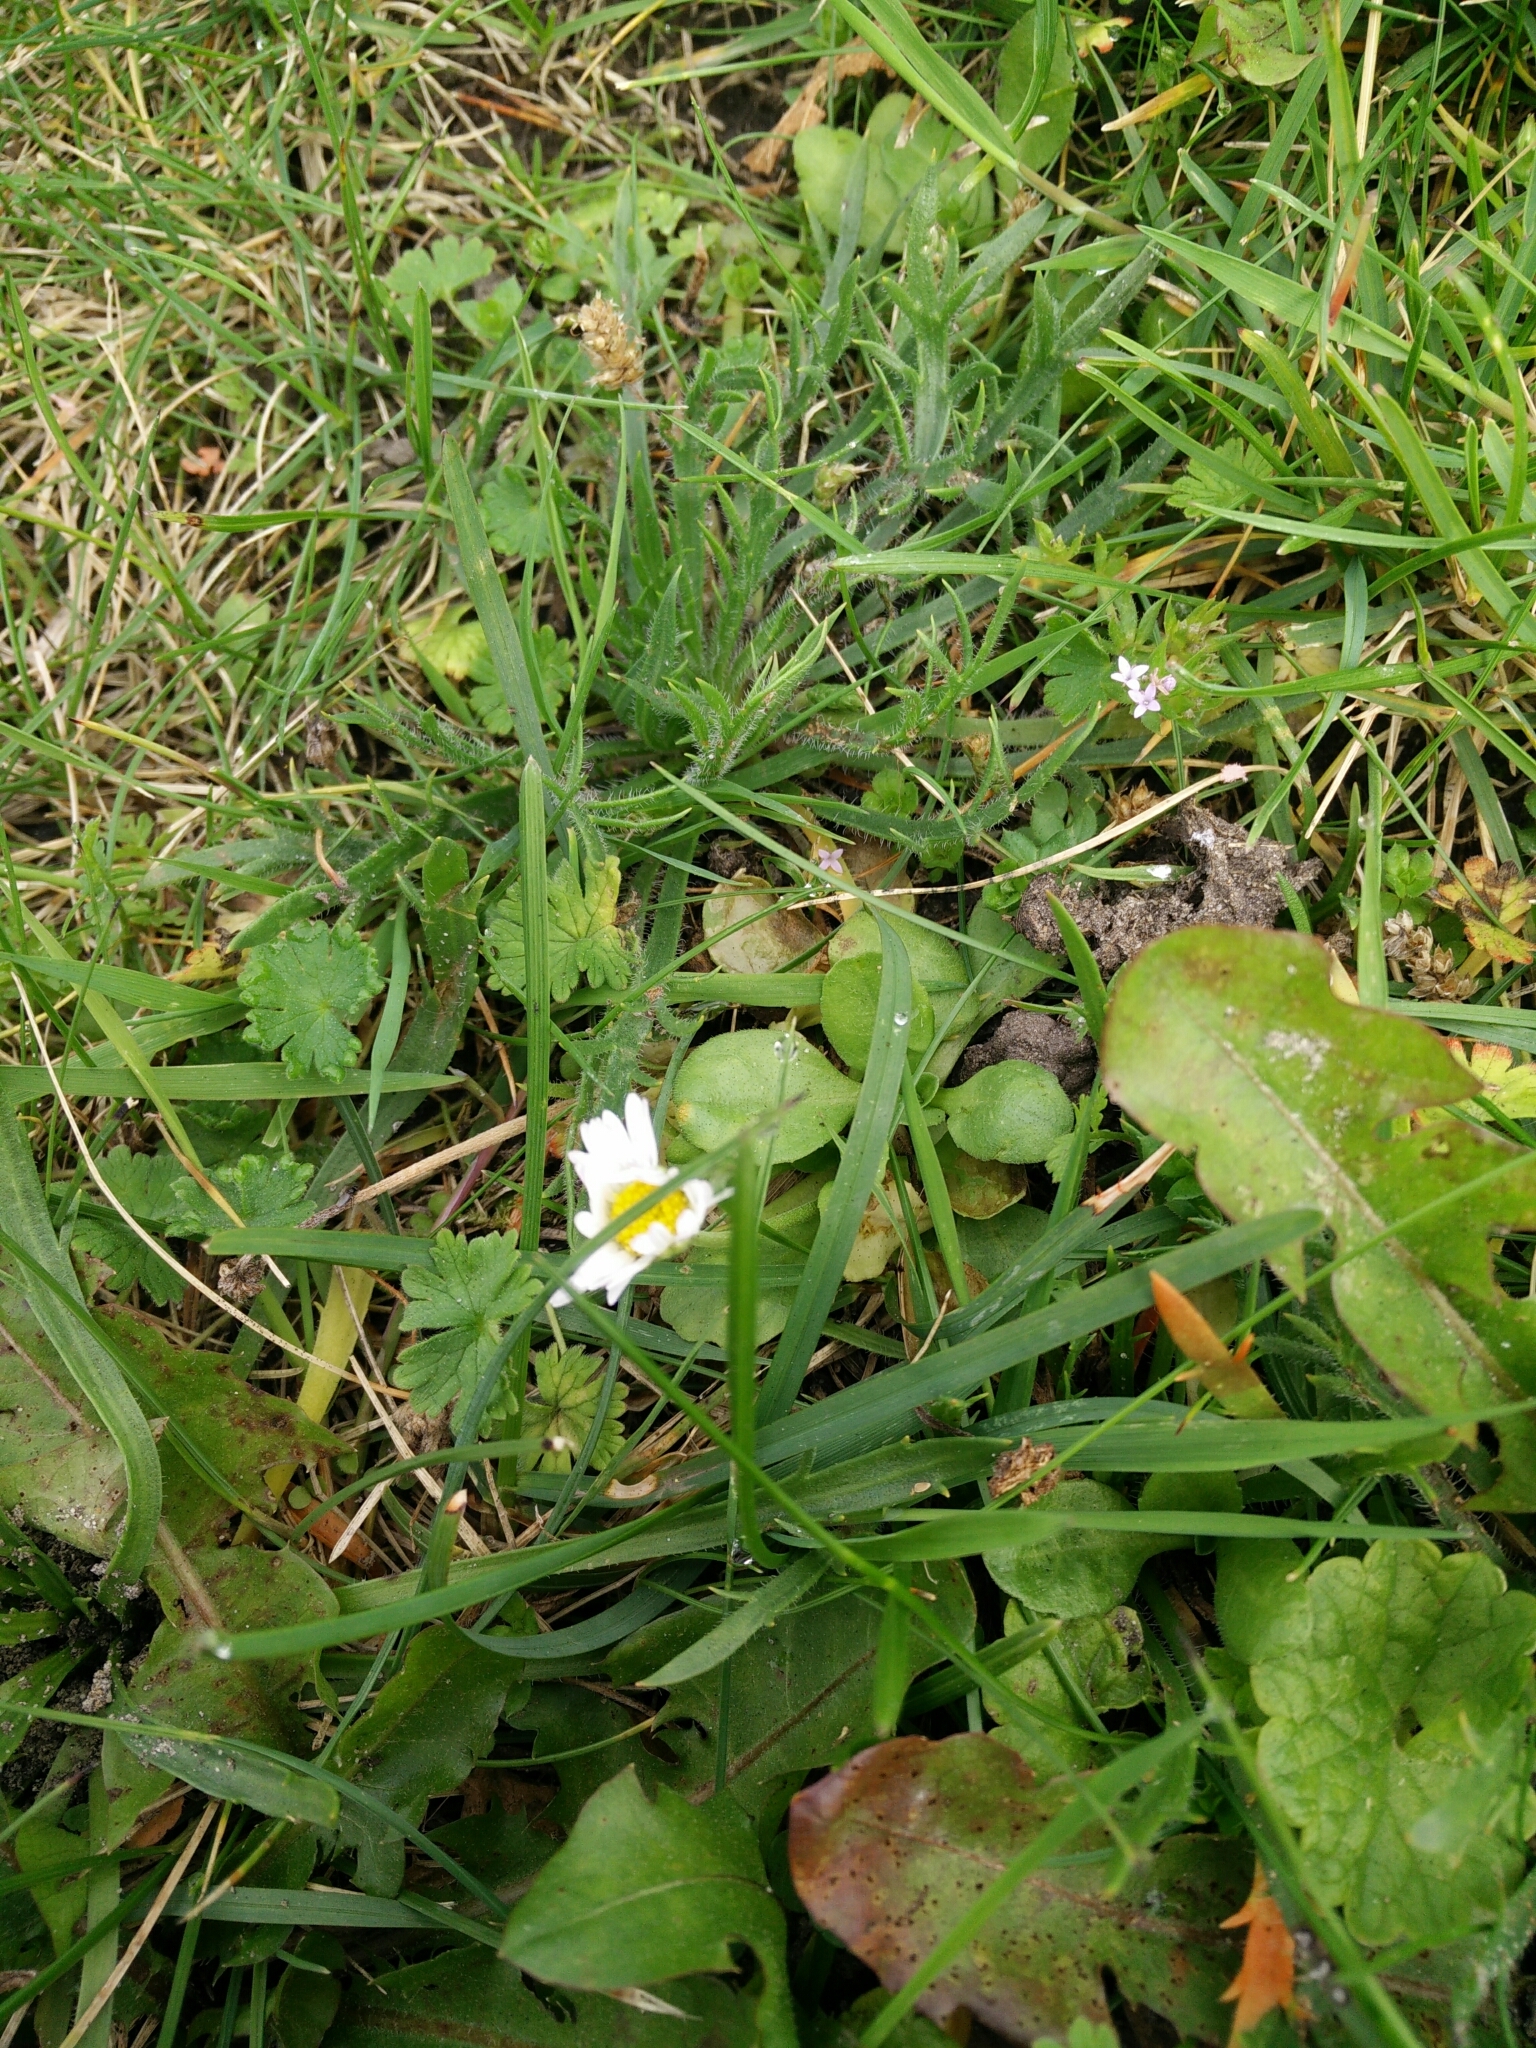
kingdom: Plantae
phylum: Tracheophyta
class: Magnoliopsida
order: Asterales
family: Asteraceae
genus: Bellis
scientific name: Bellis perennis
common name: Lawndaisy
